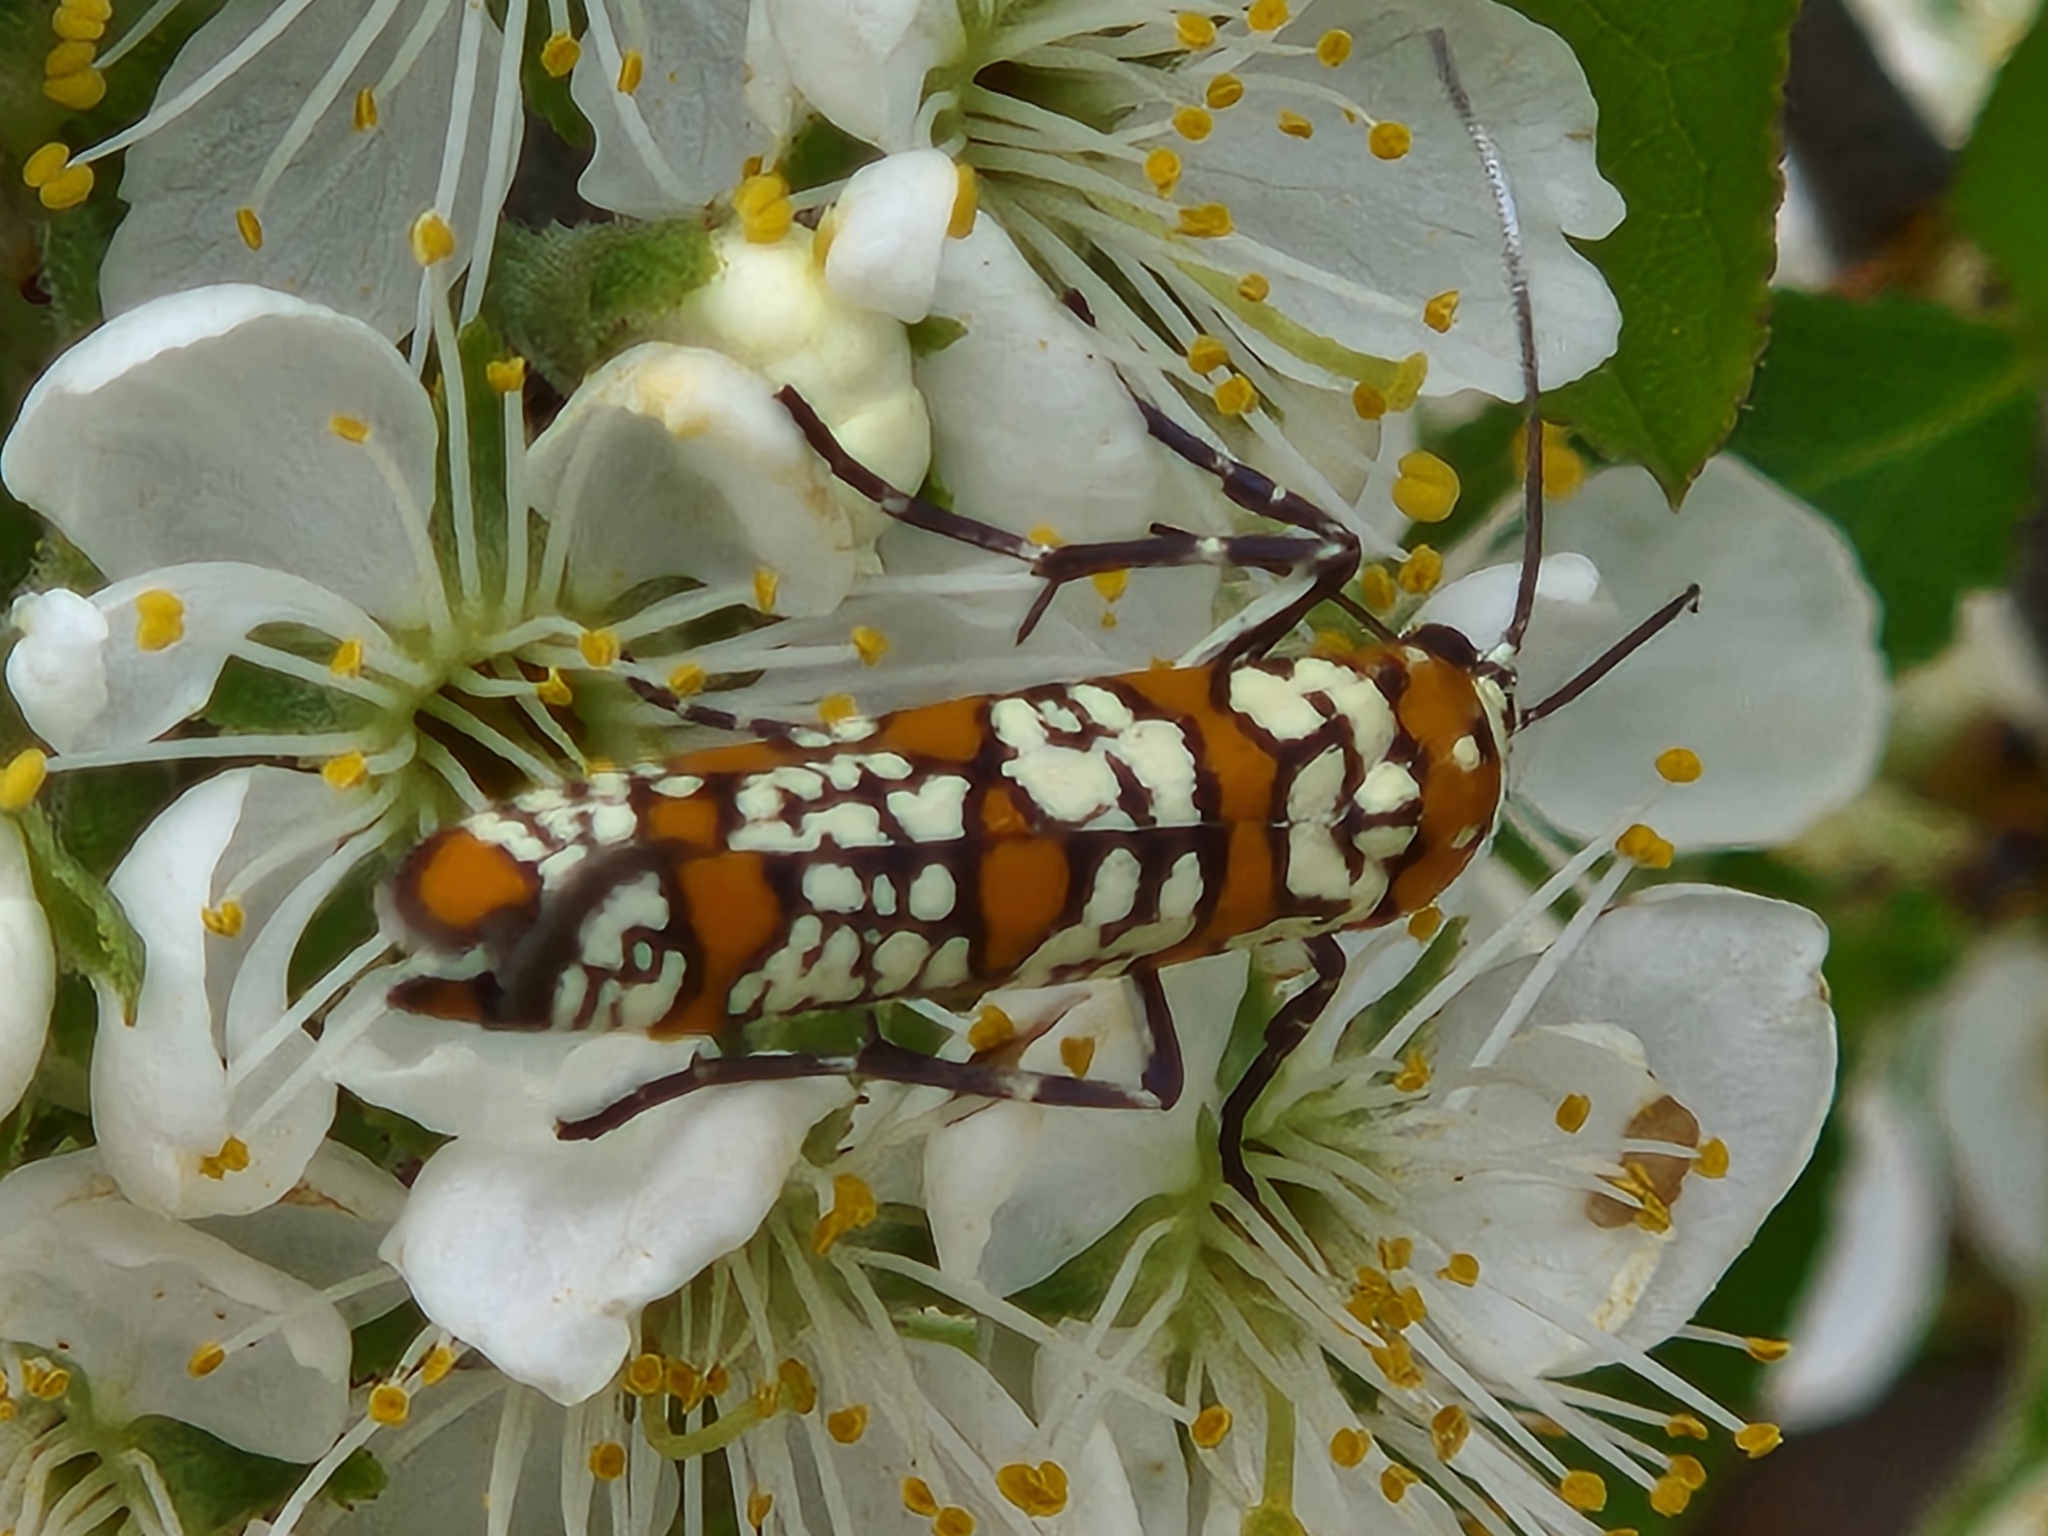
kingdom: Animalia
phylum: Arthropoda
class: Insecta
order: Lepidoptera
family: Attevidae
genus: Atteva
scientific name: Atteva punctella
